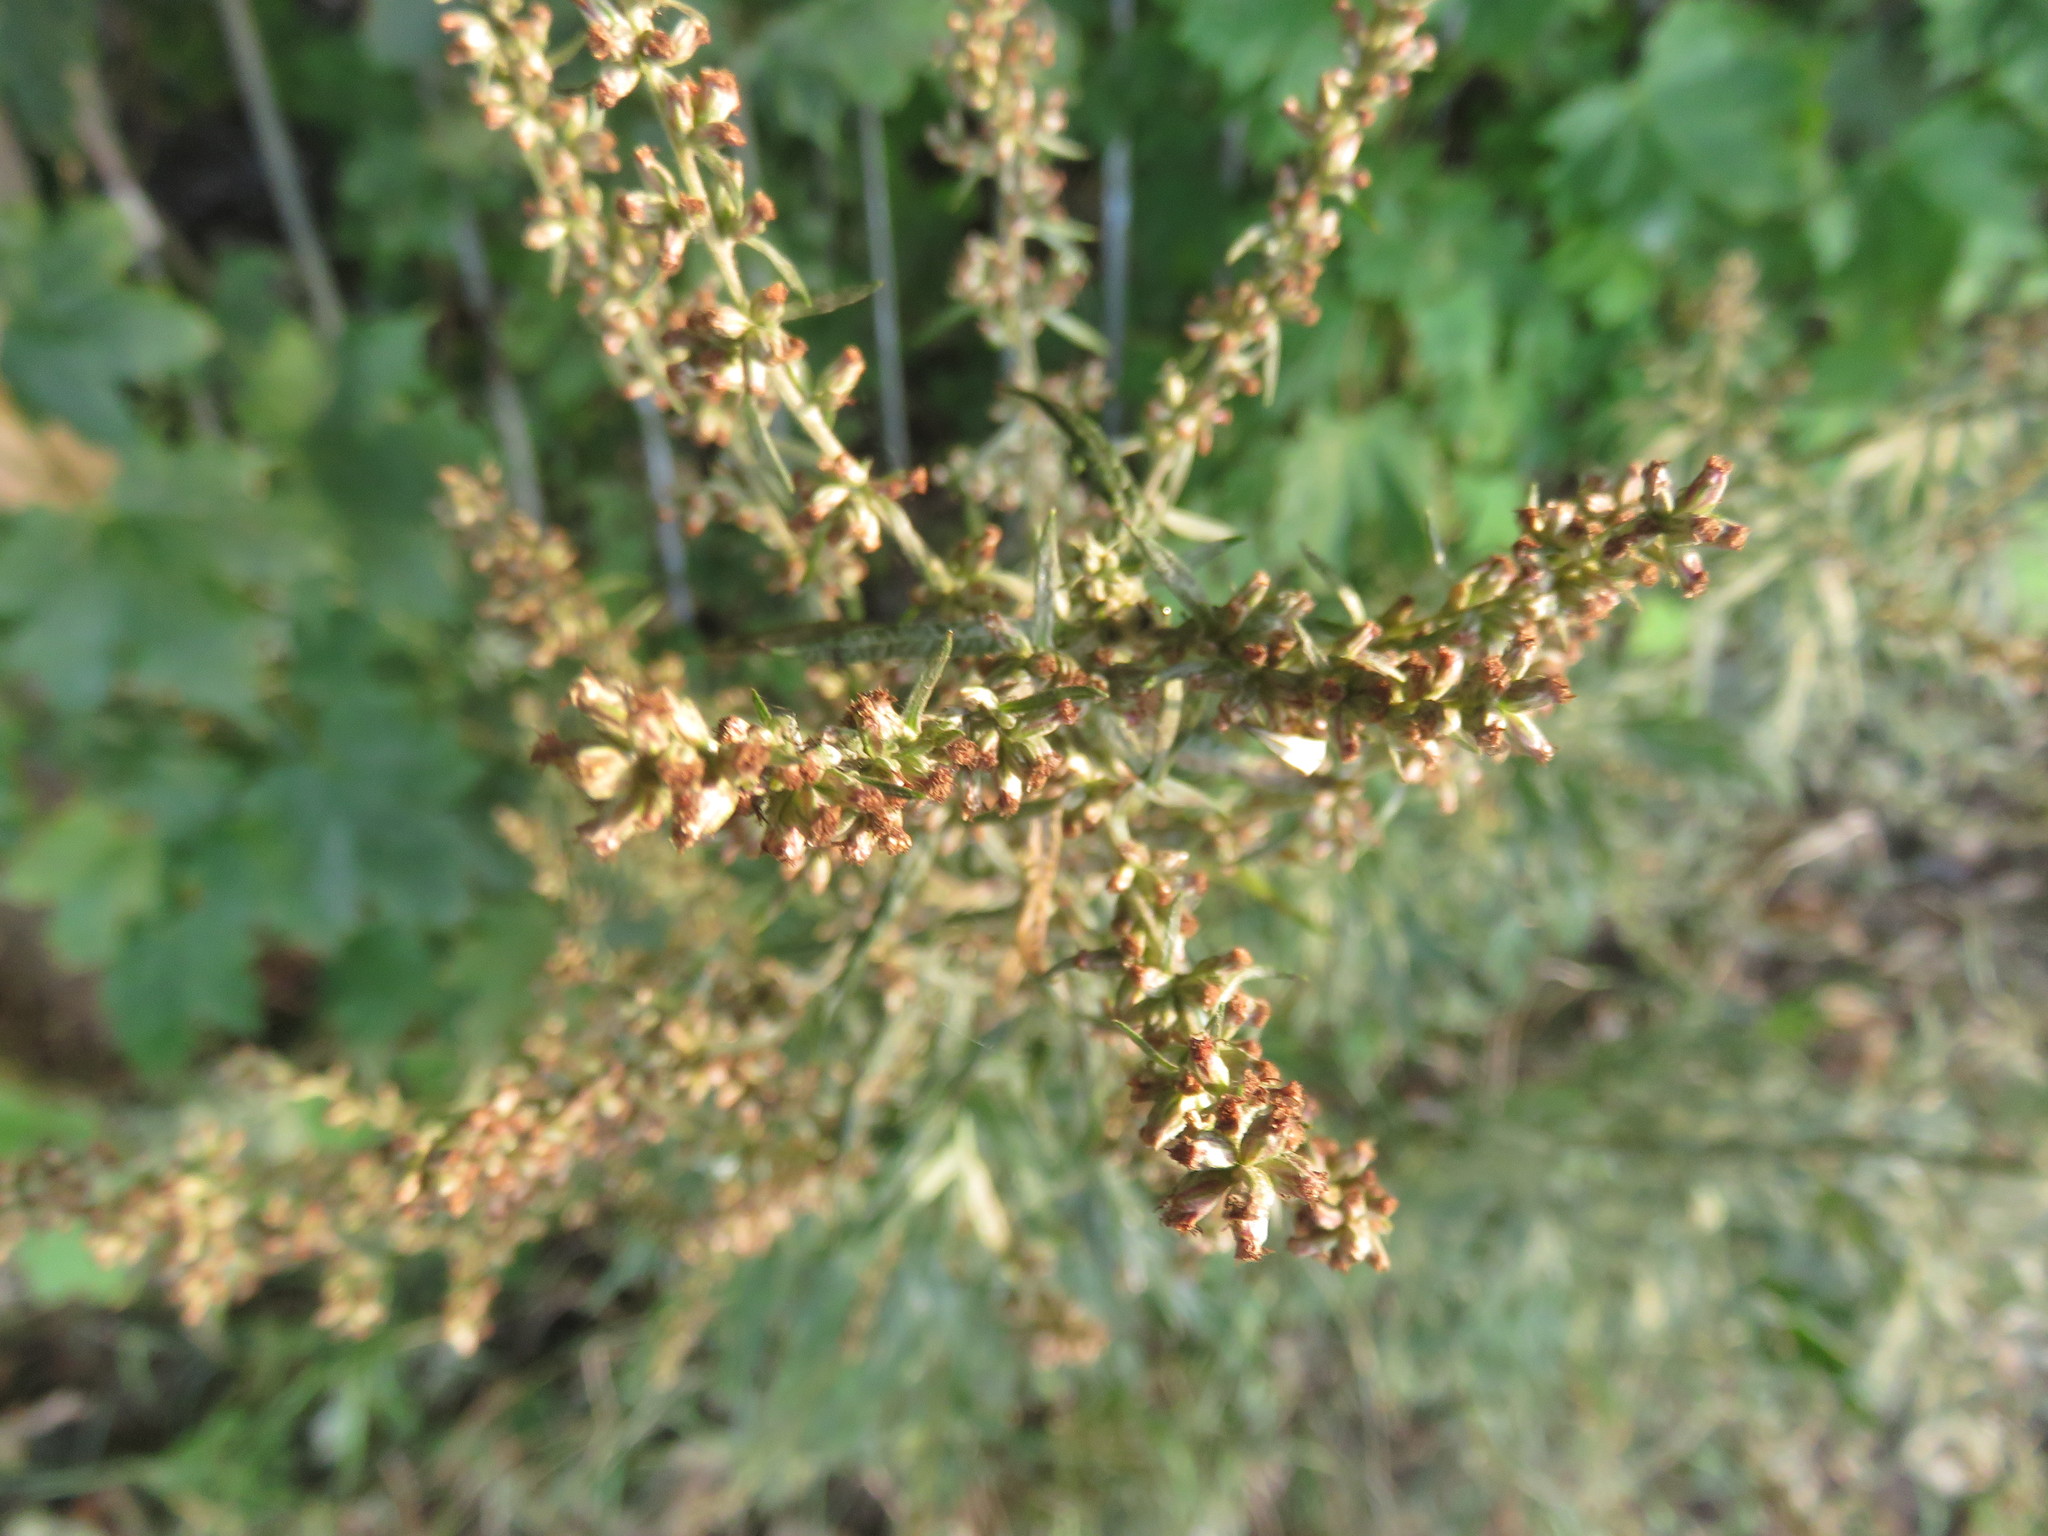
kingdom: Plantae
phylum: Tracheophyta
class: Magnoliopsida
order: Asterales
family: Asteraceae
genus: Artemisia
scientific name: Artemisia vulgaris
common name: Mugwort
